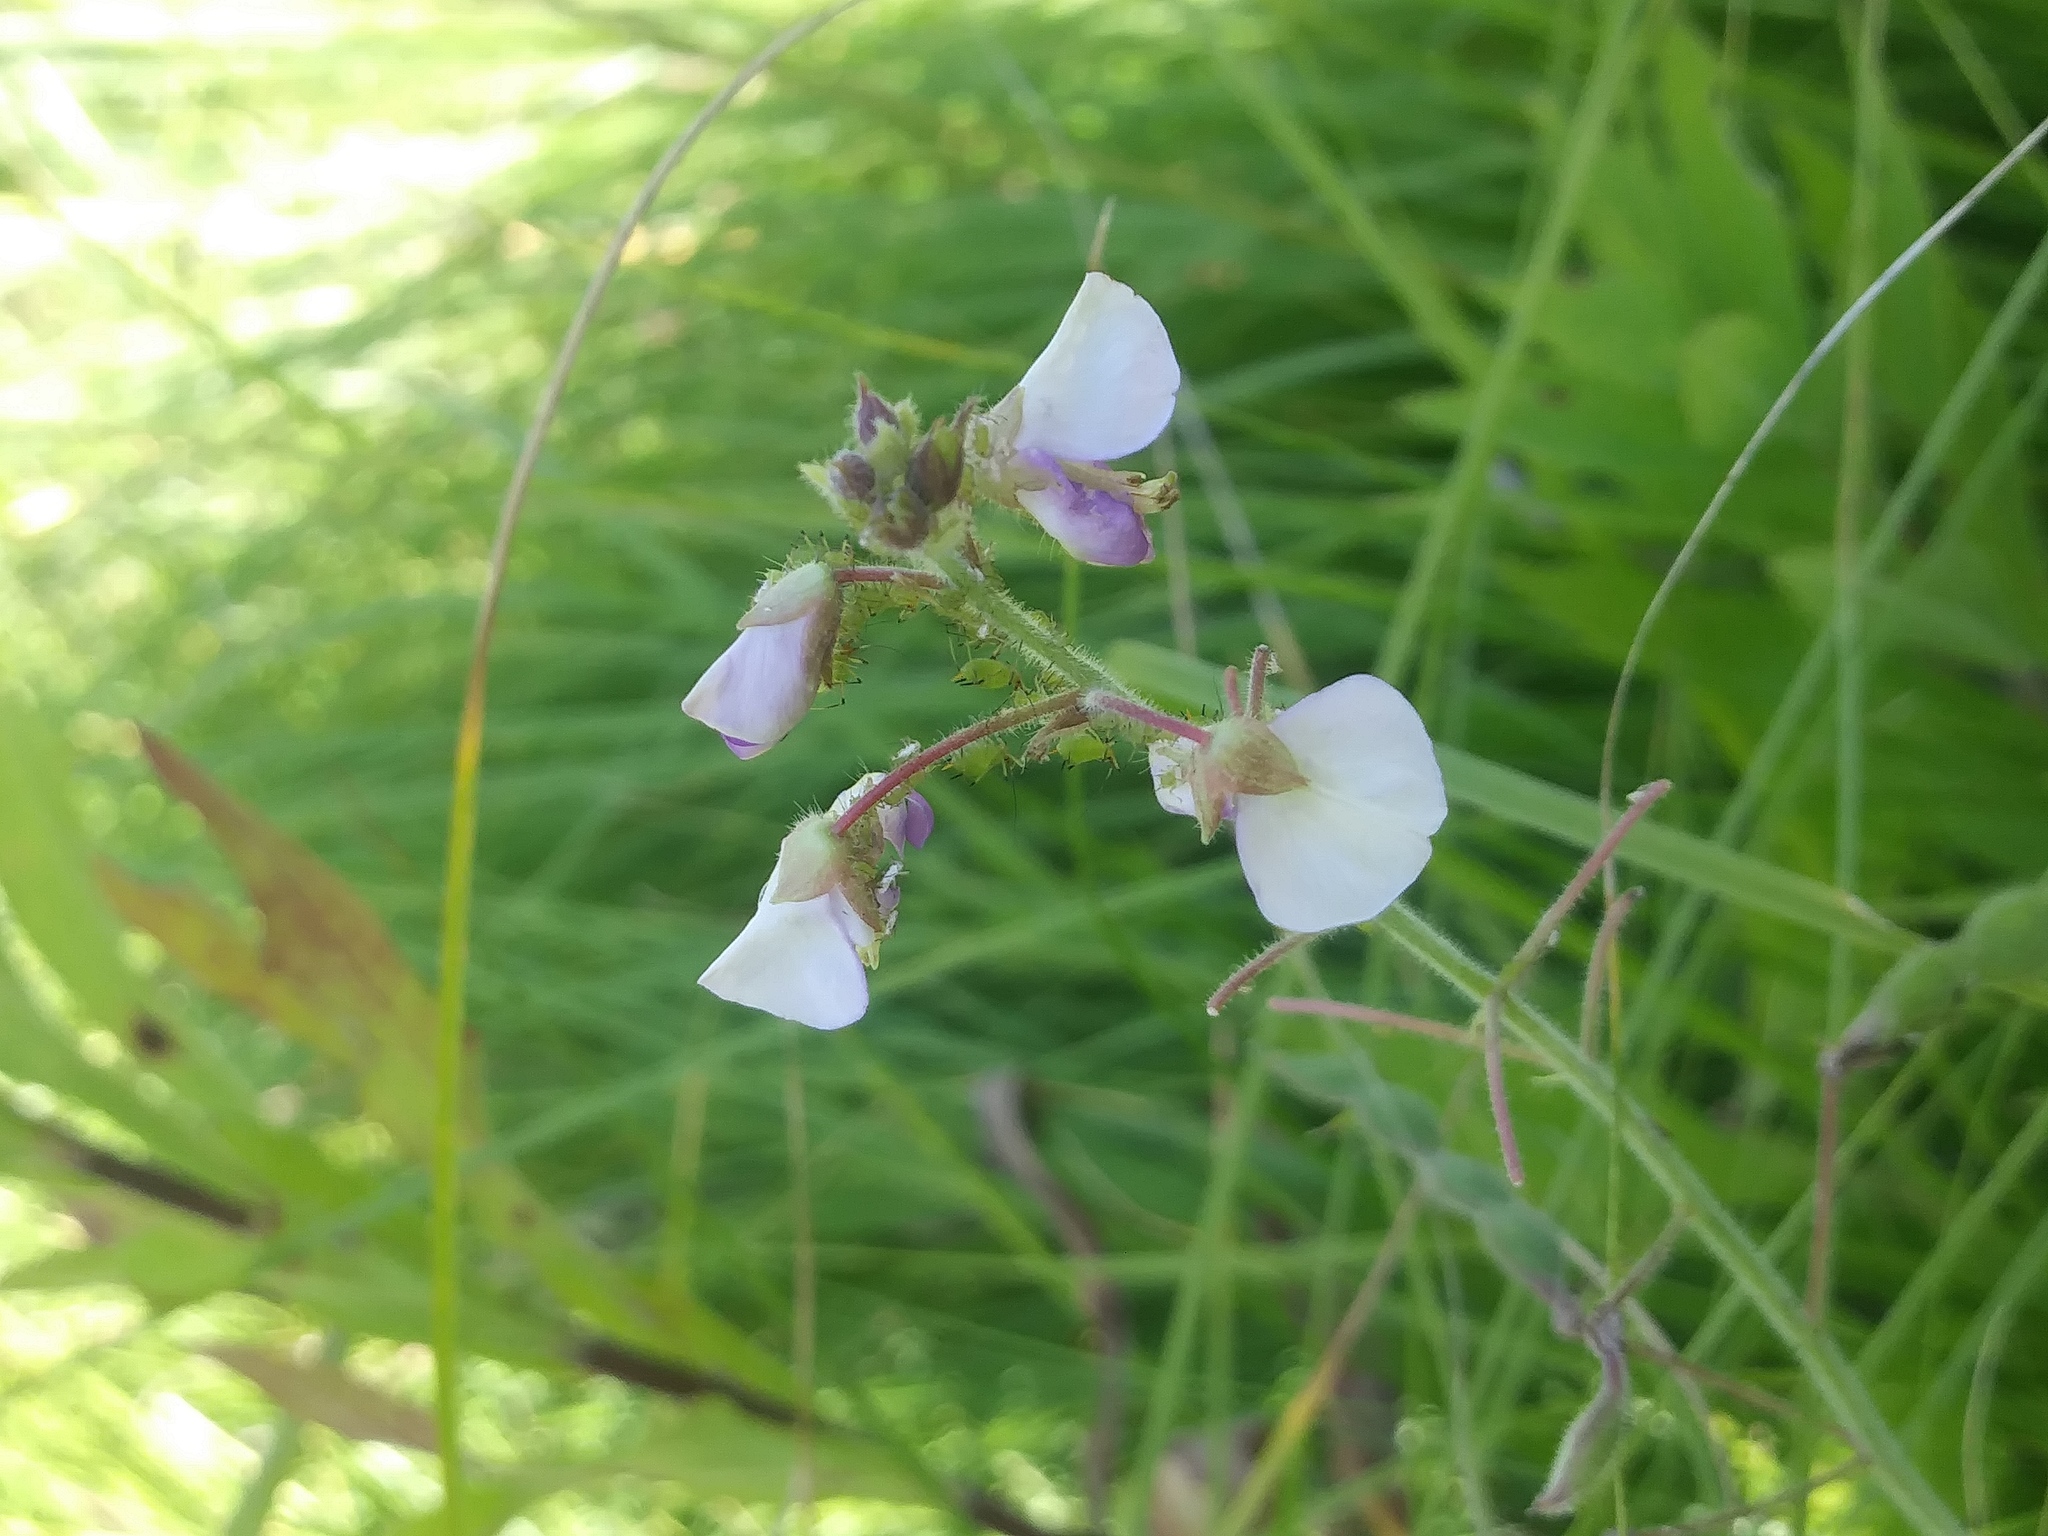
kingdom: Plantae
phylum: Tracheophyta
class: Magnoliopsida
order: Fabales
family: Fabaceae
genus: Desmodium
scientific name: Desmodium illinoense
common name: Illinois tick-clover
